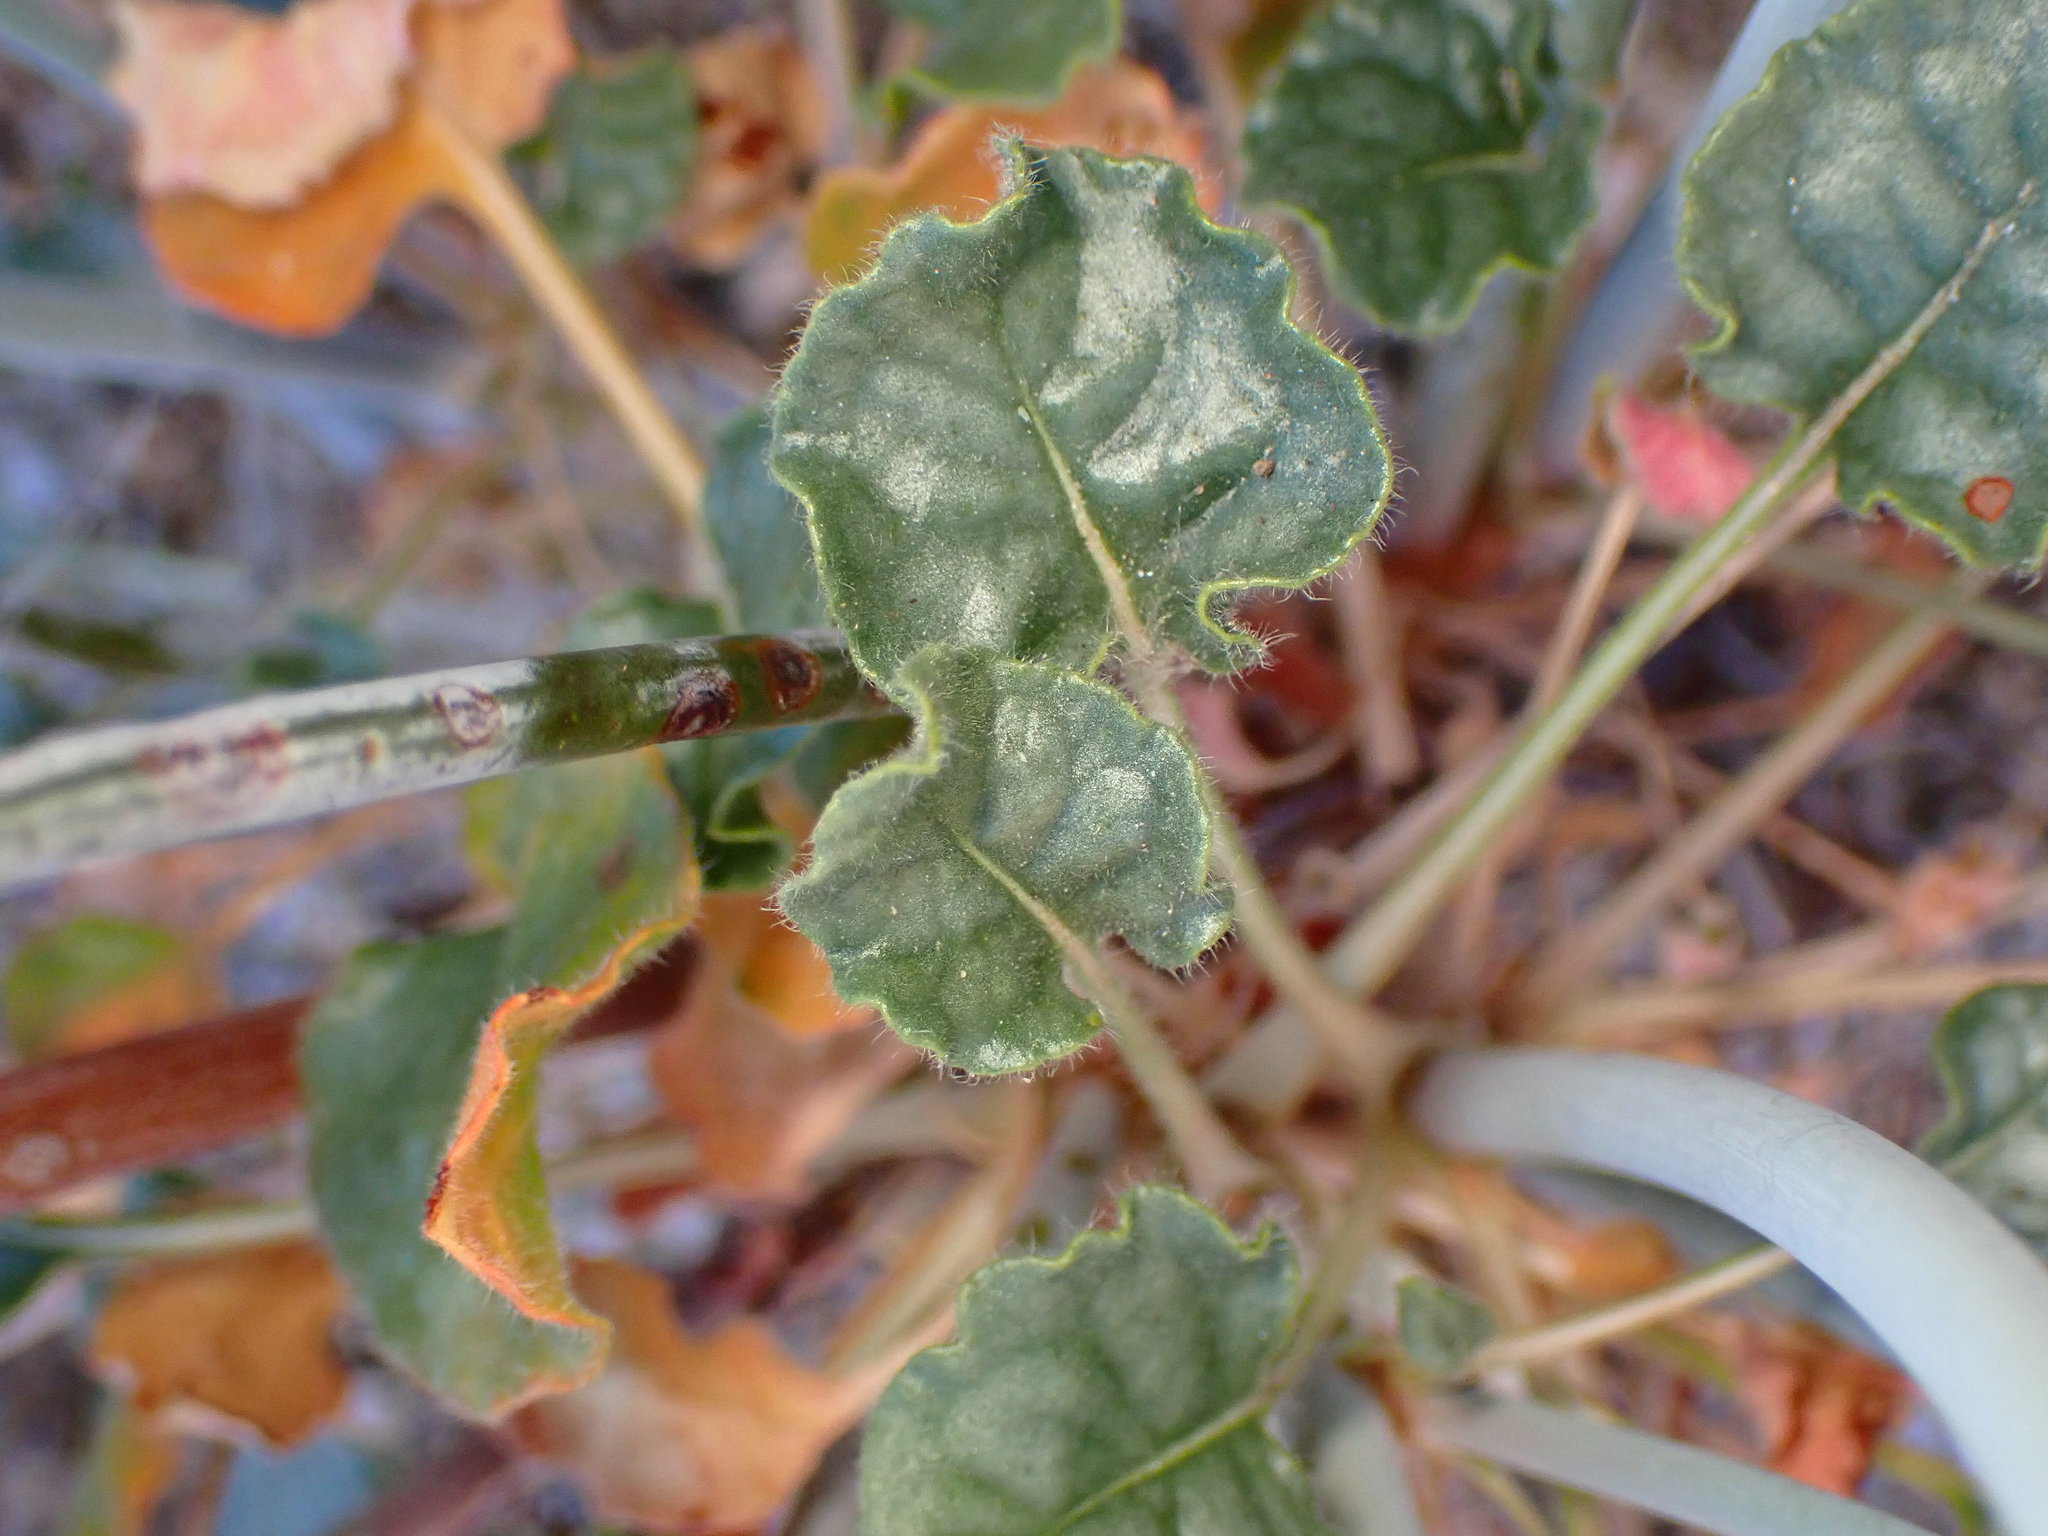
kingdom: Plantae
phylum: Tracheophyta
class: Magnoliopsida
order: Caryophyllales
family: Polygonaceae
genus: Eriogonum
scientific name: Eriogonum inflatum
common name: Desert trumpet
